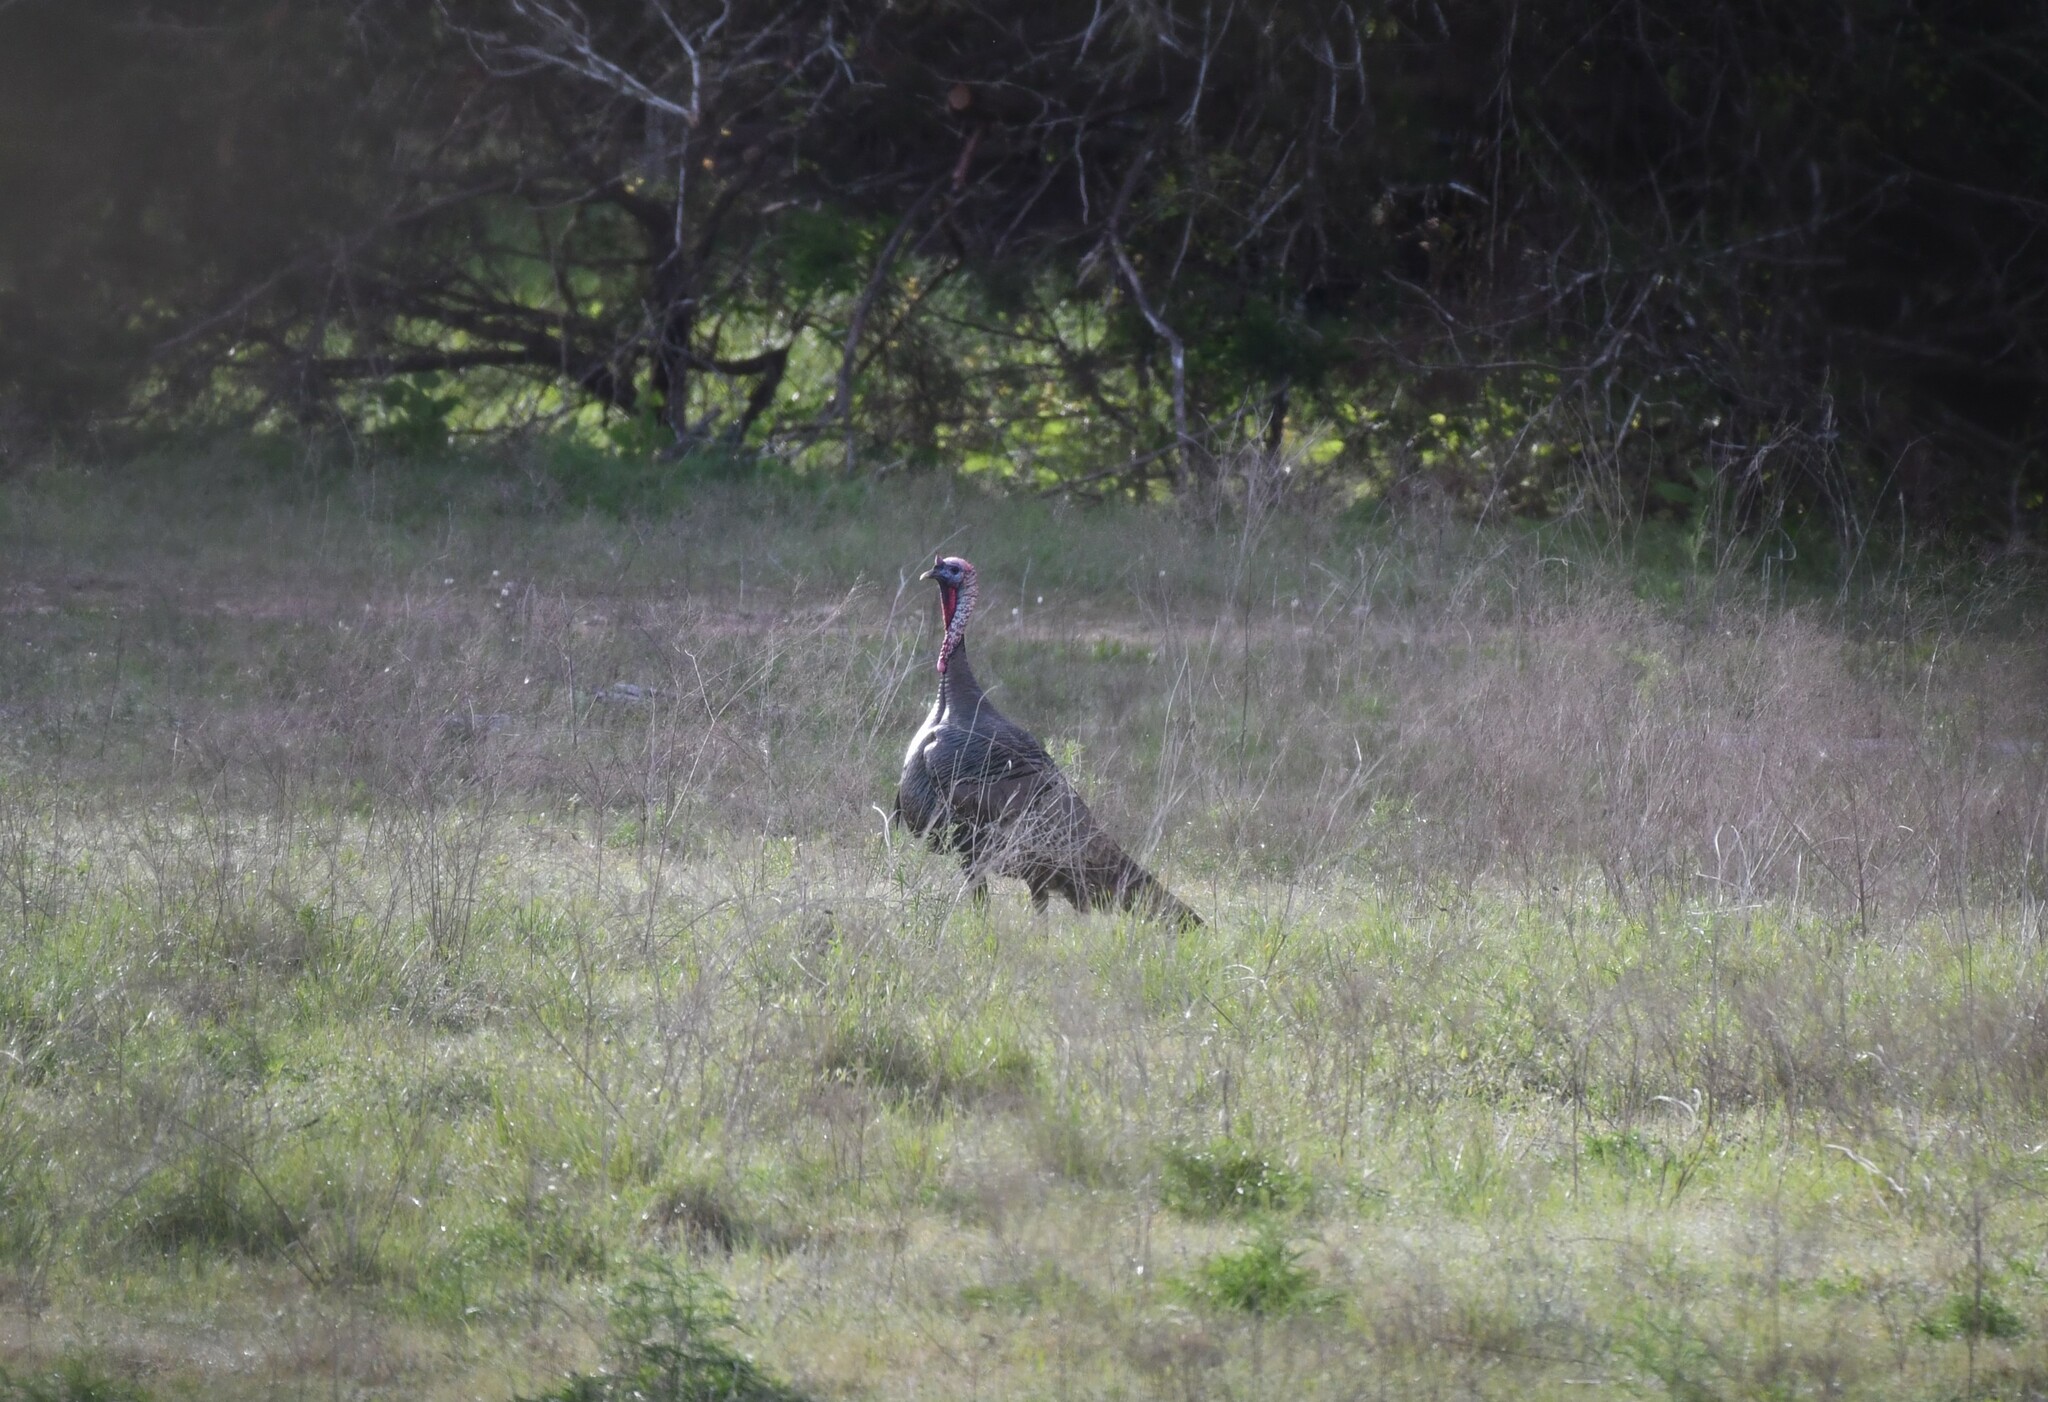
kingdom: Animalia
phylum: Chordata
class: Aves
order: Galliformes
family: Phasianidae
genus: Meleagris
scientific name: Meleagris gallopavo
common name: Wild turkey
